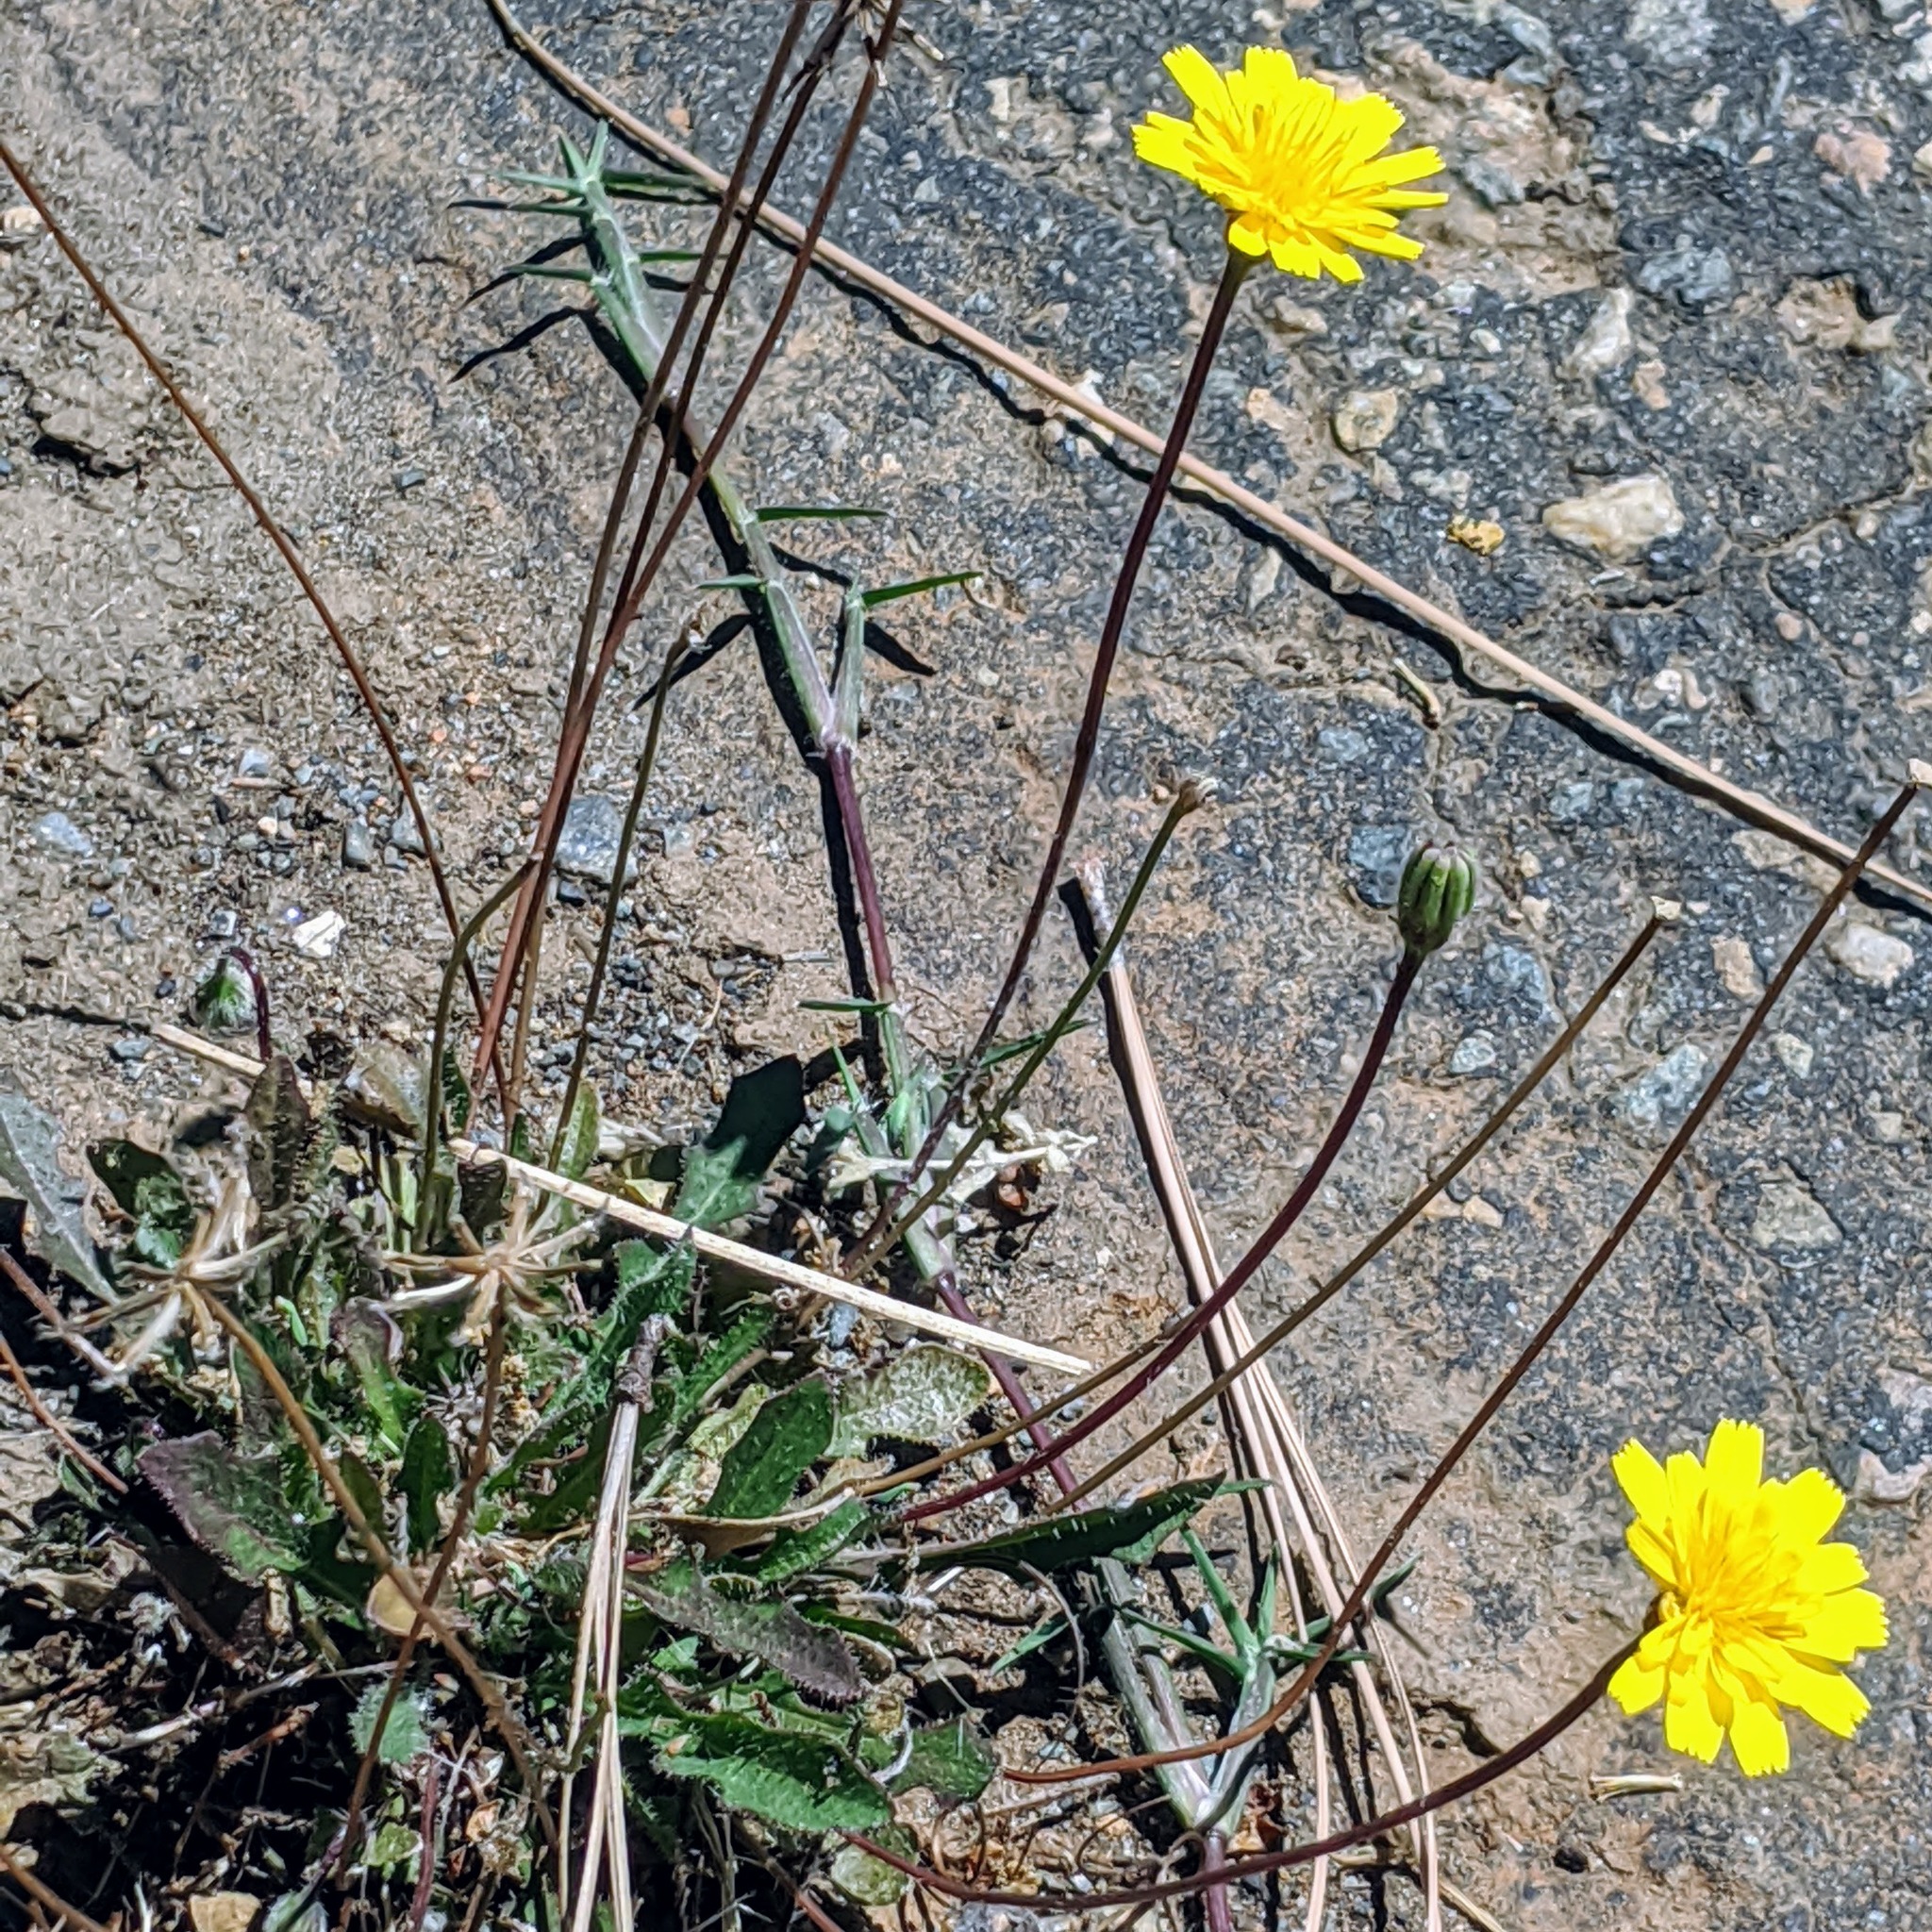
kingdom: Plantae
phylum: Tracheophyta
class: Magnoliopsida
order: Asterales
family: Asteraceae
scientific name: Asteraceae
